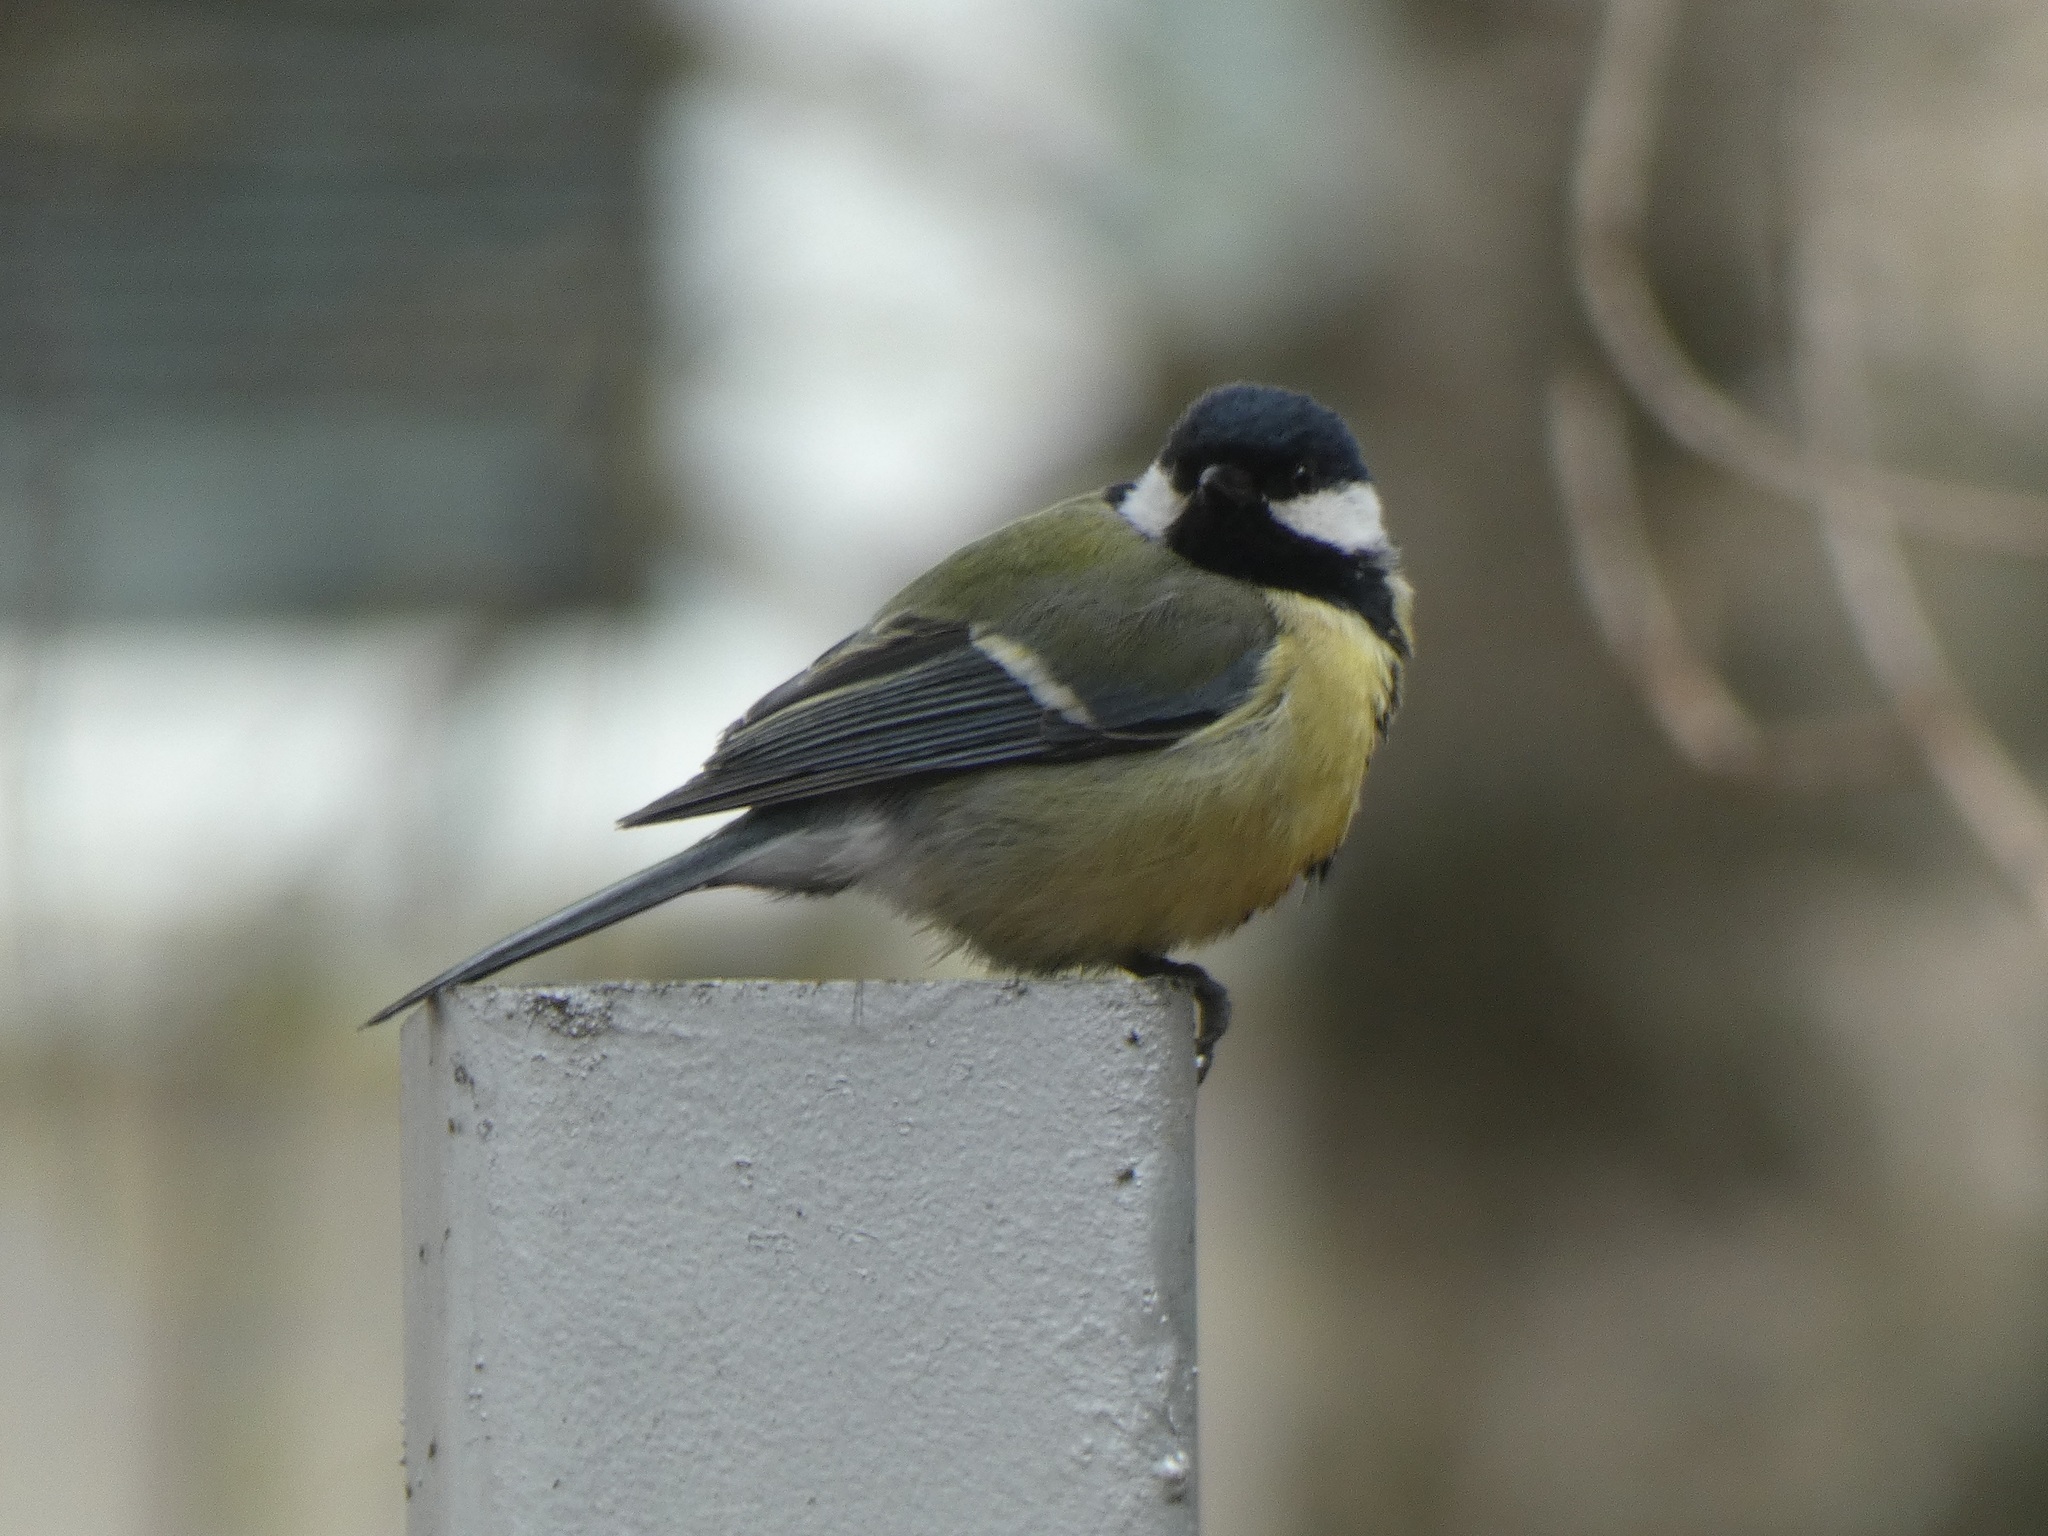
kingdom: Animalia
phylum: Chordata
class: Aves
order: Passeriformes
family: Paridae
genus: Parus
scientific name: Parus major
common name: Great tit
